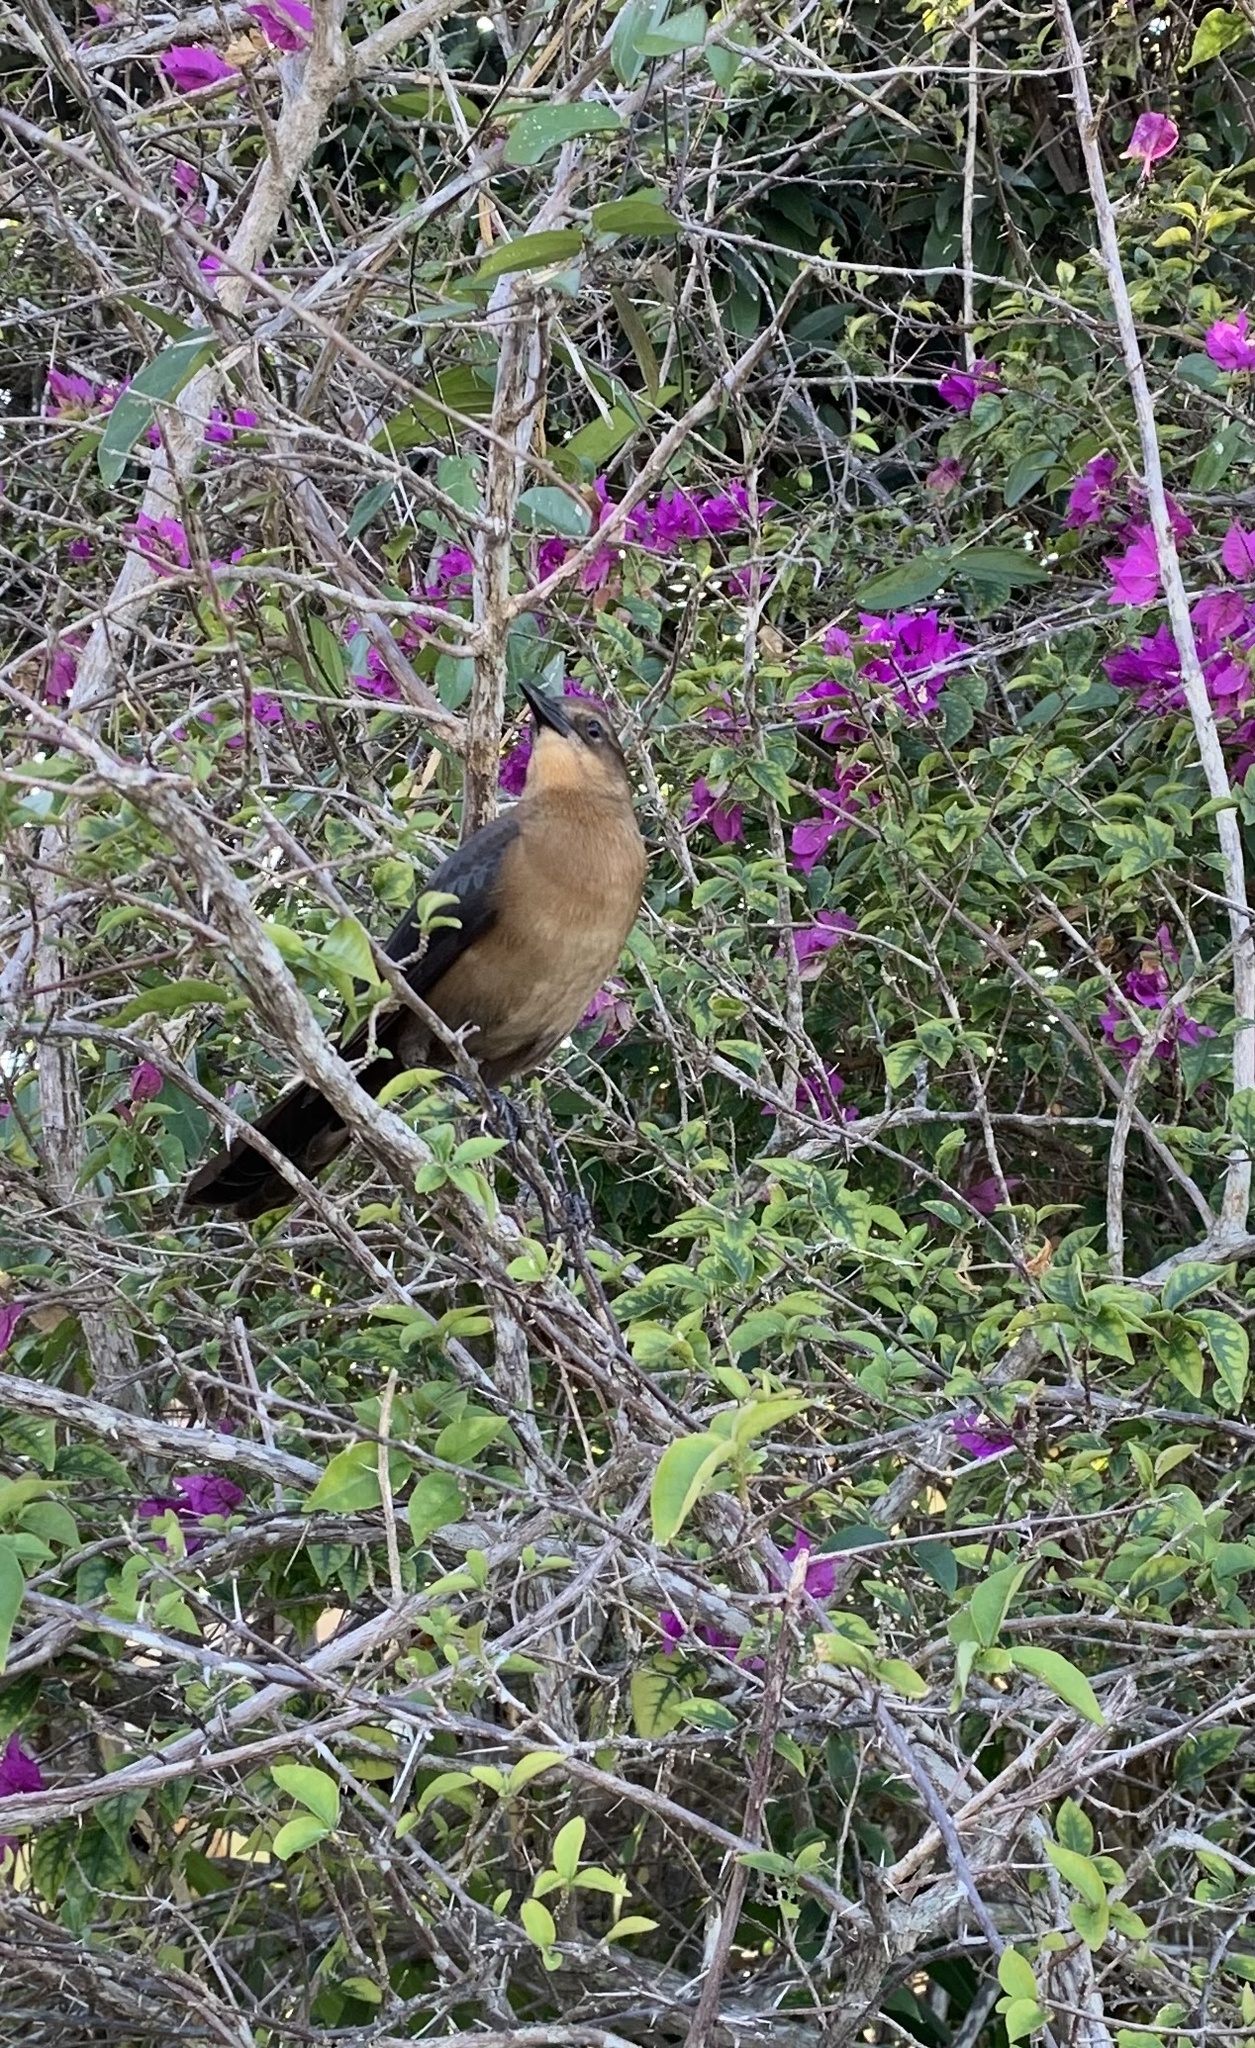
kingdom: Animalia
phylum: Chordata
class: Aves
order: Passeriformes
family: Icteridae
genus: Quiscalus
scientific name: Quiscalus major
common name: Boat-tailed grackle
